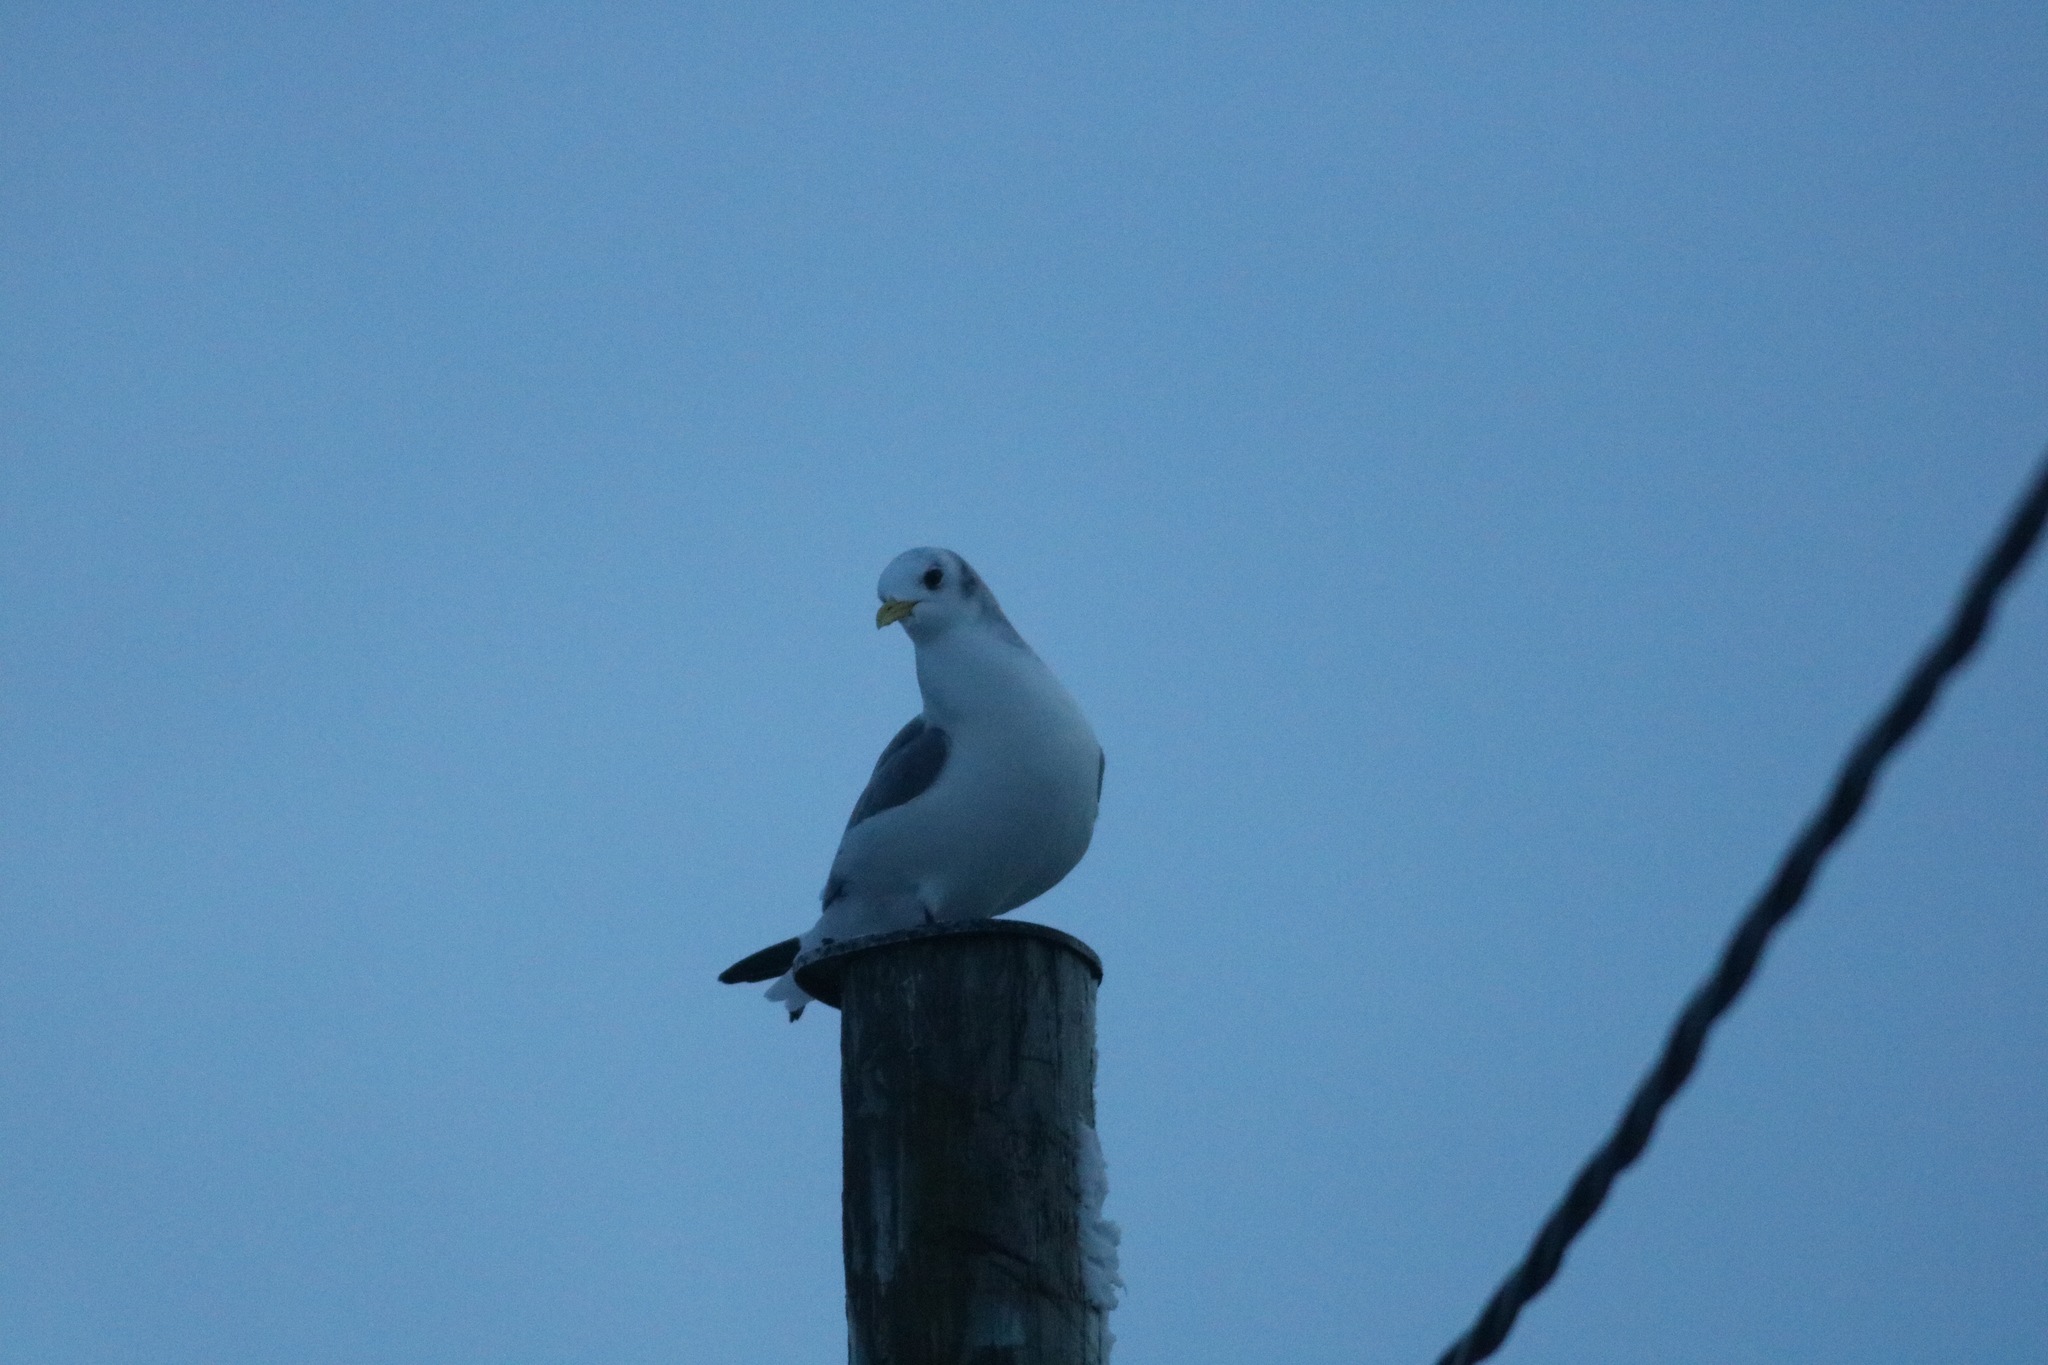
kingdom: Animalia
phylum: Chordata
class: Aves
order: Charadriiformes
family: Laridae
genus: Rissa
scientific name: Rissa tridactyla
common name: Black-legged kittiwake
